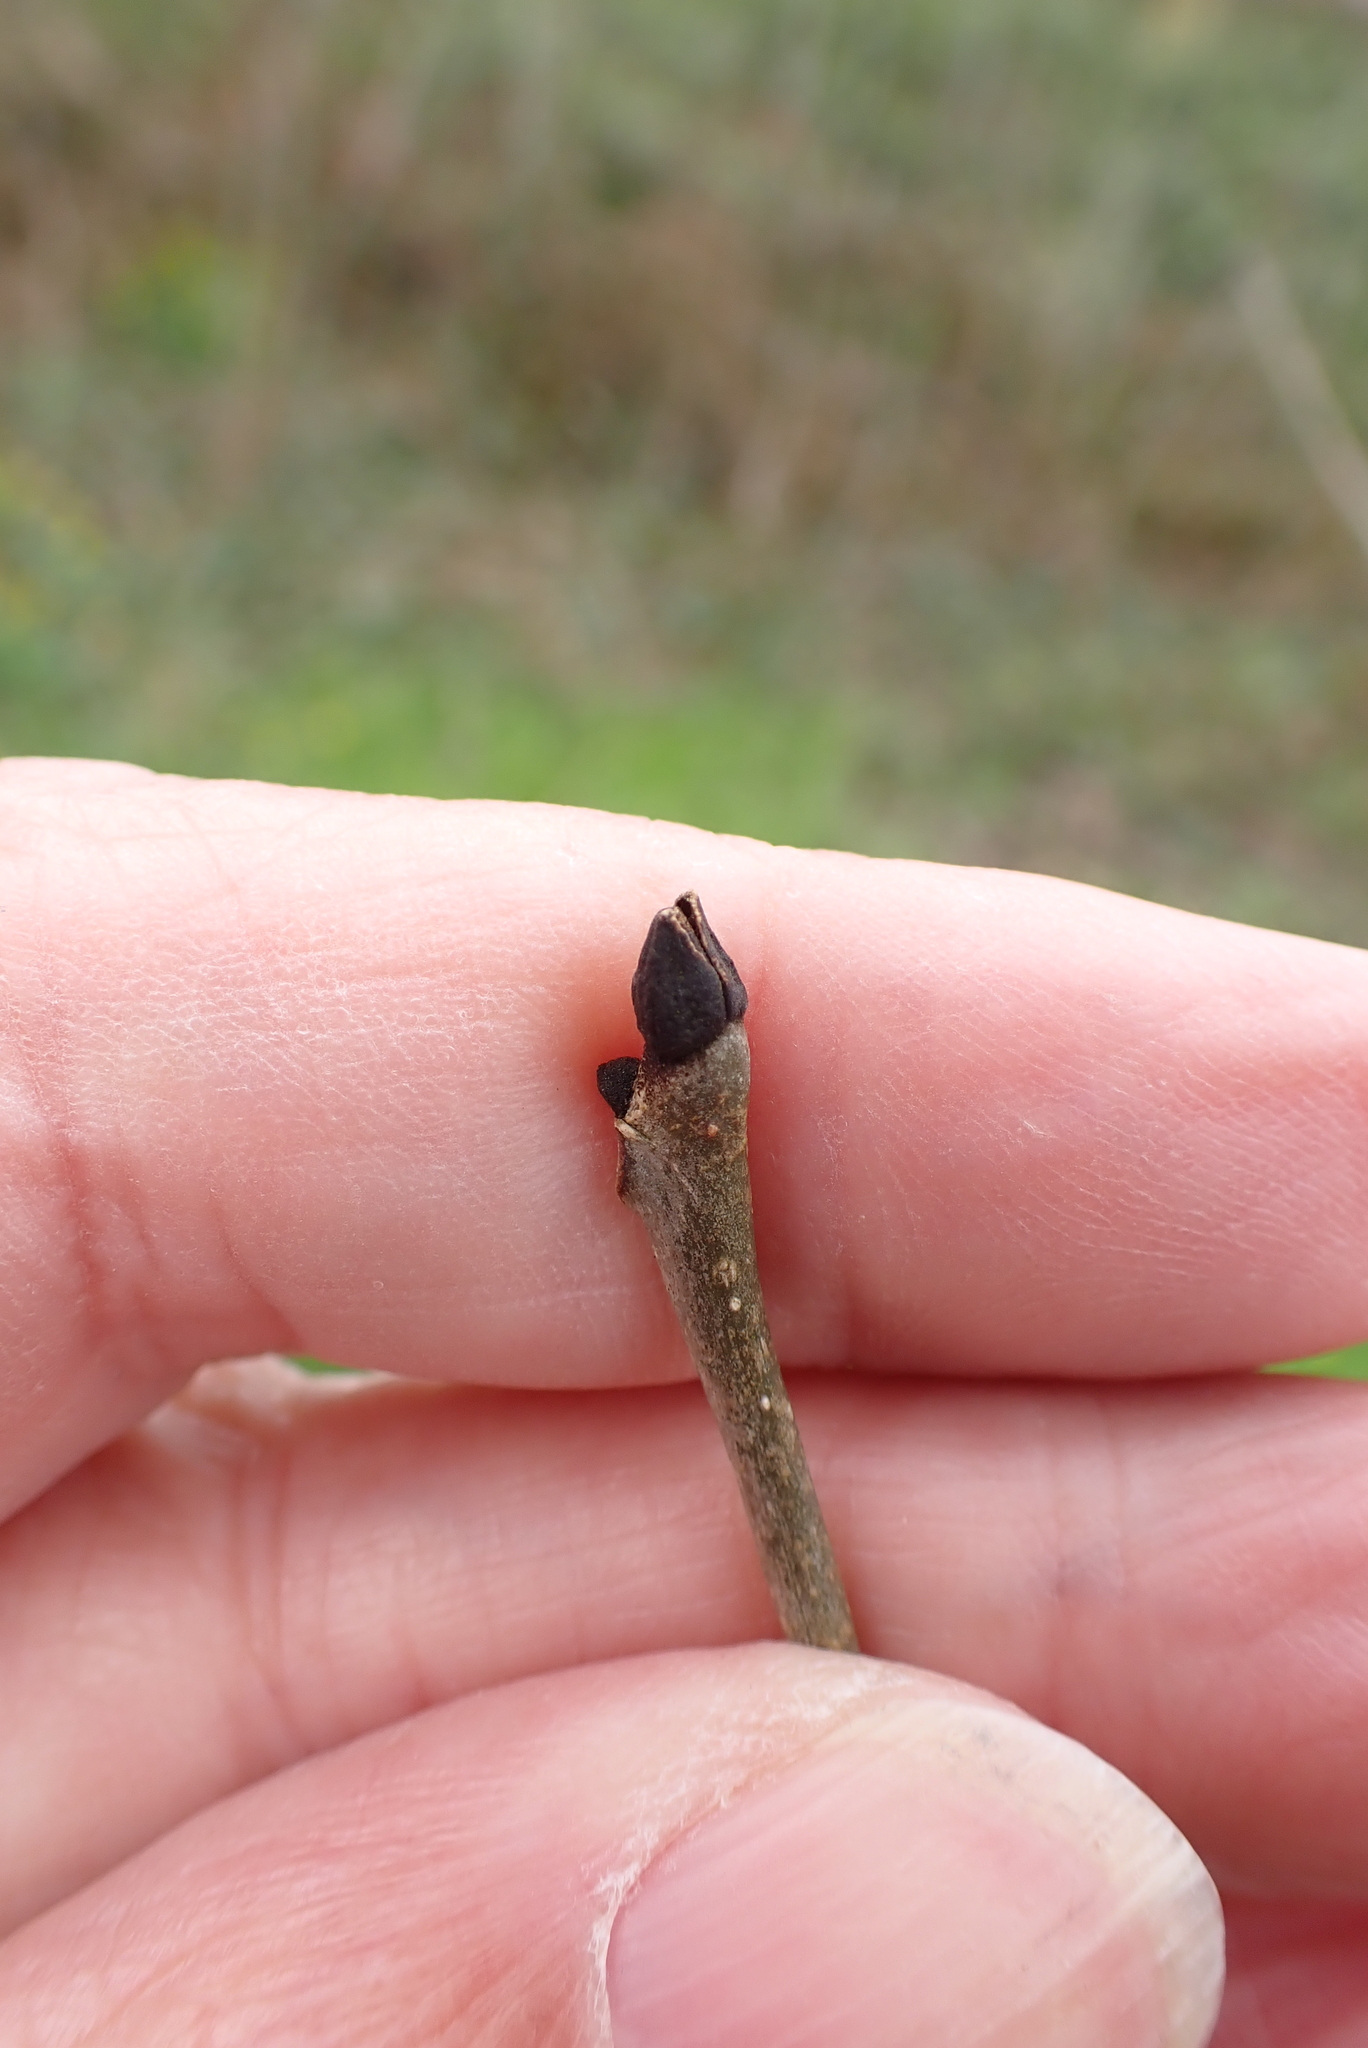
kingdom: Plantae
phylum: Tracheophyta
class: Magnoliopsida
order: Lamiales
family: Oleaceae
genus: Fraxinus
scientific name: Fraxinus excelsior
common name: European ash
